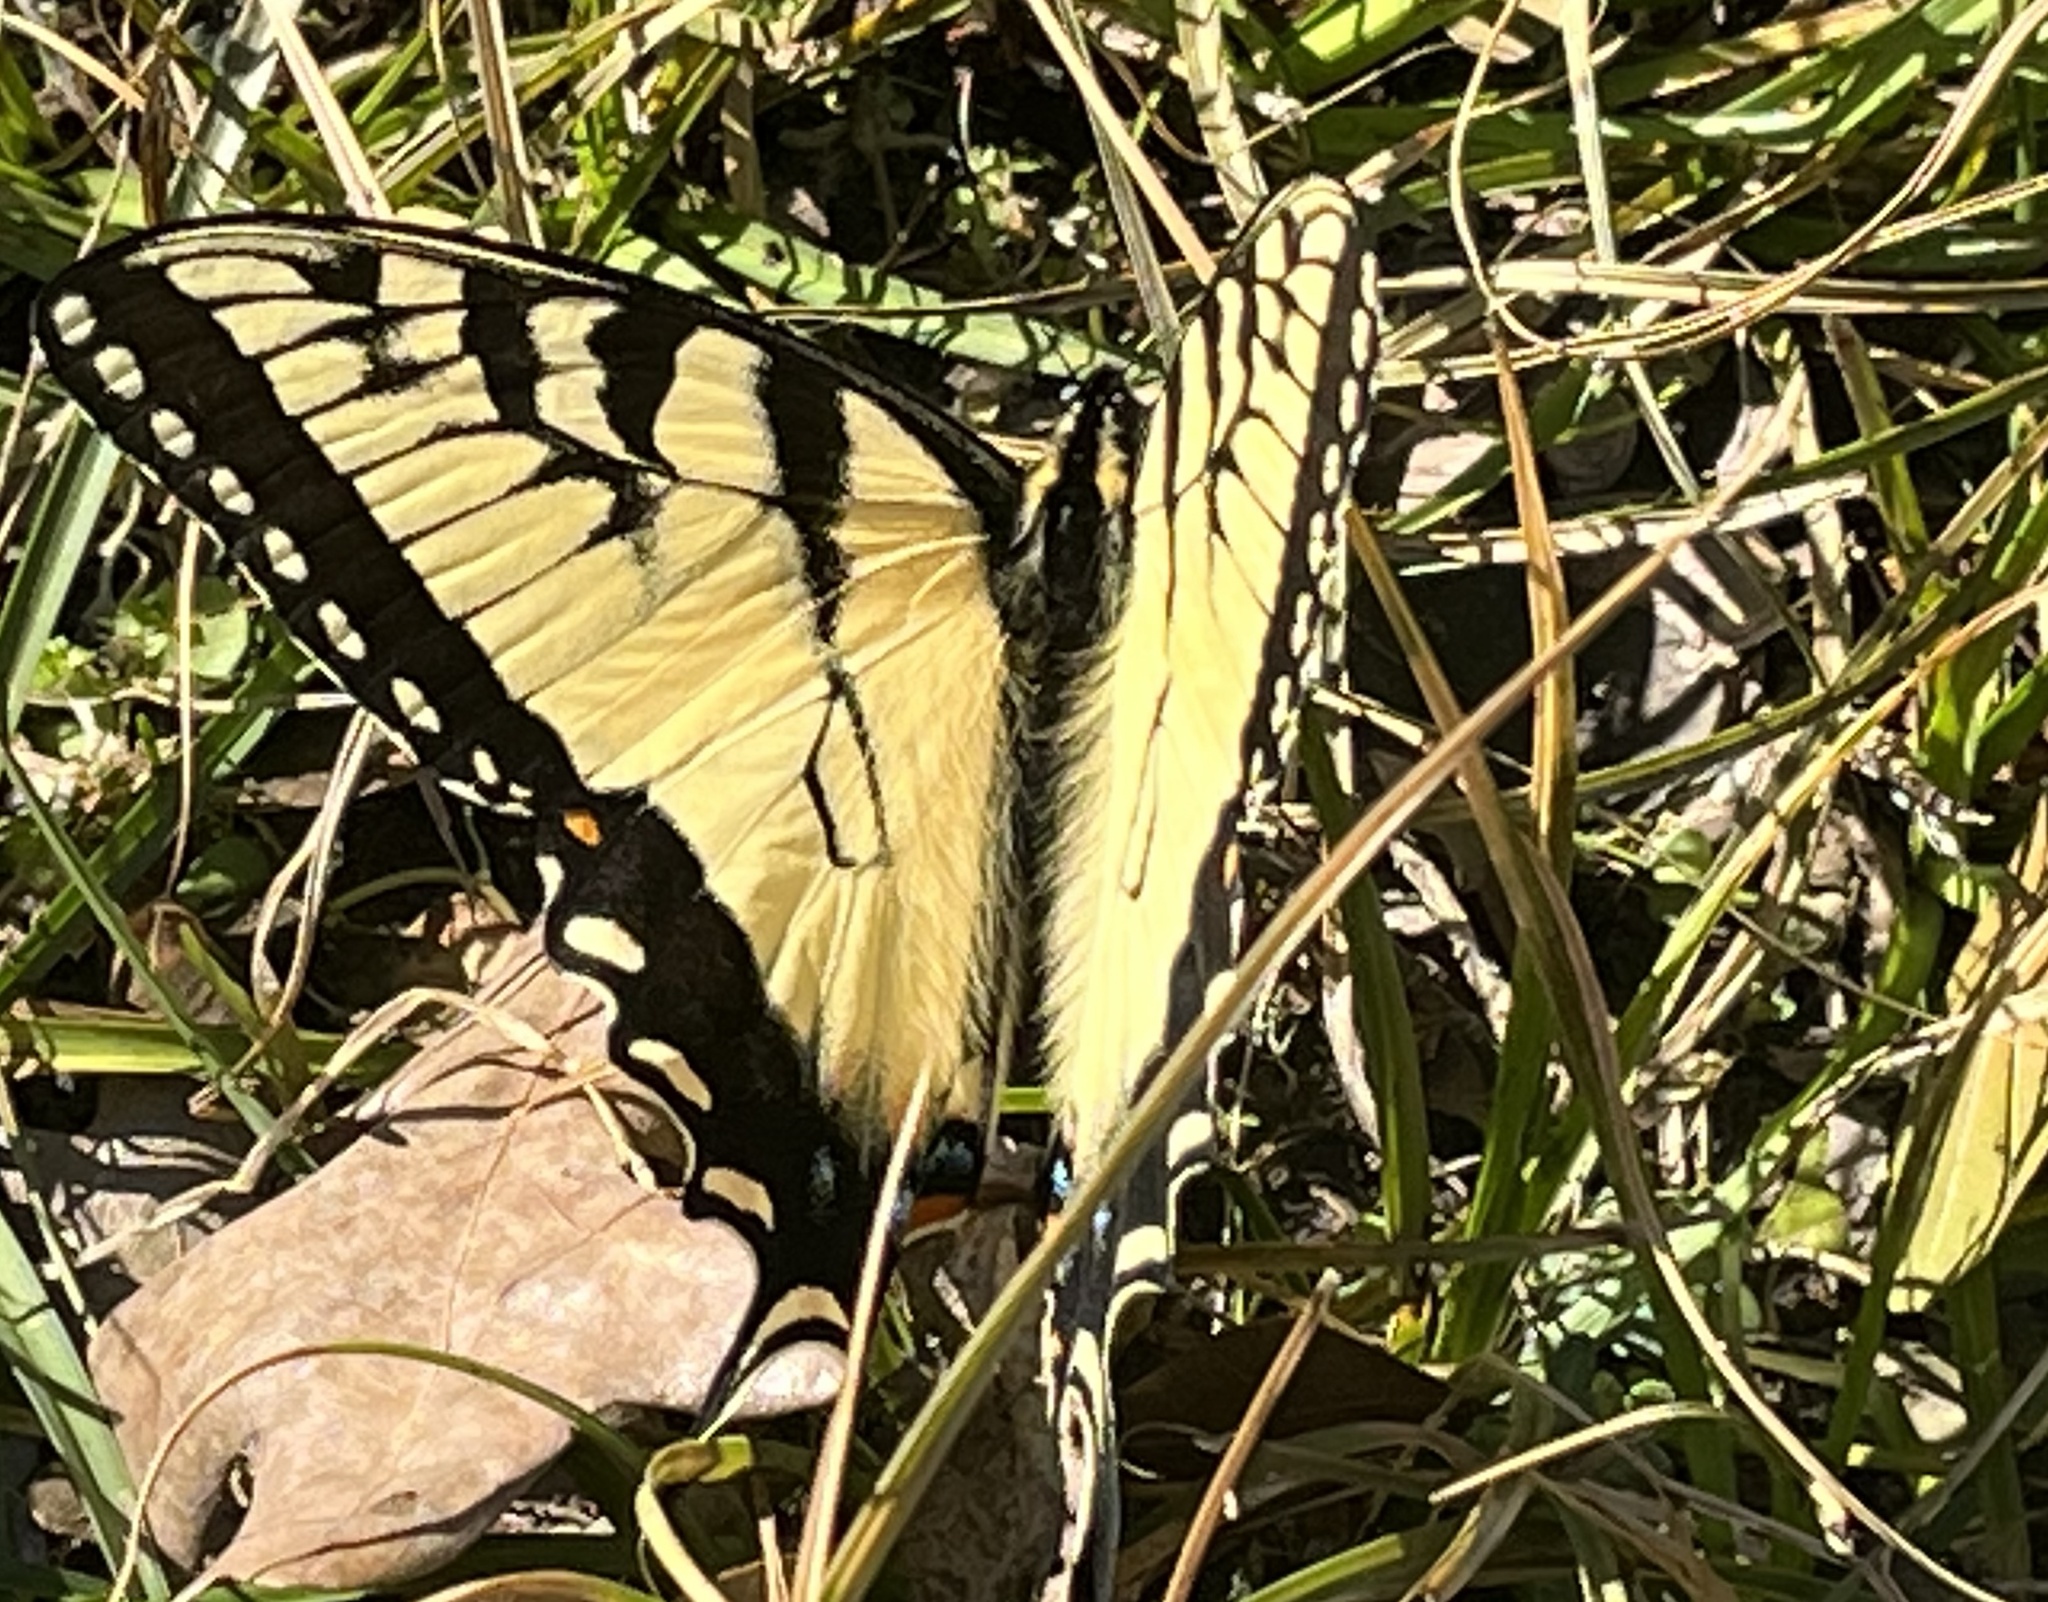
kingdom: Animalia
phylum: Arthropoda
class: Insecta
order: Lepidoptera
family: Papilionidae
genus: Papilio
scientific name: Papilio glaucus
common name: Tiger swallowtail
